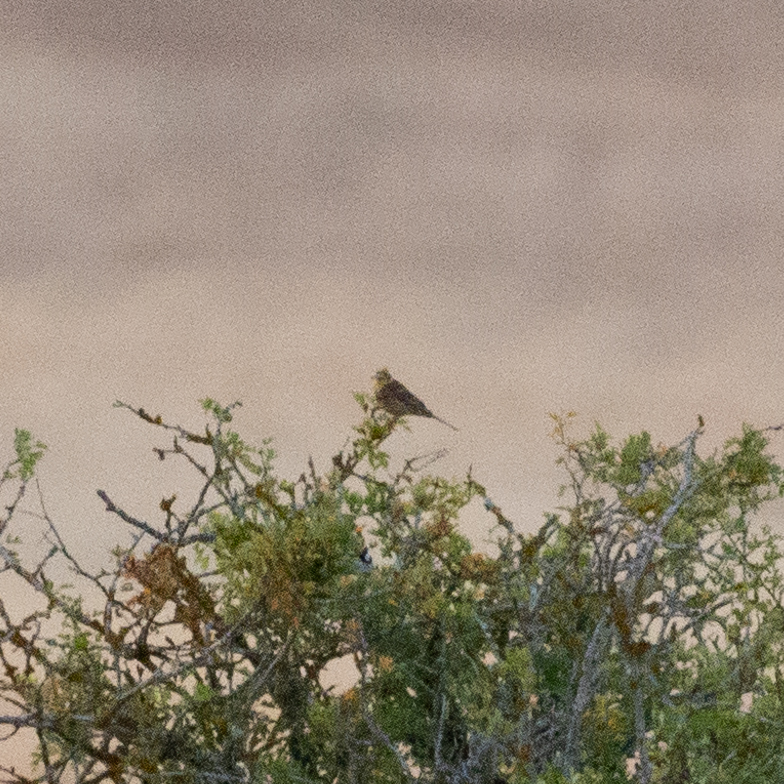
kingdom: Animalia
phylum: Chordata
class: Aves
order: Passeriformes
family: Emberizidae
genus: Emberiza
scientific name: Emberiza citrinella
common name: Yellowhammer
